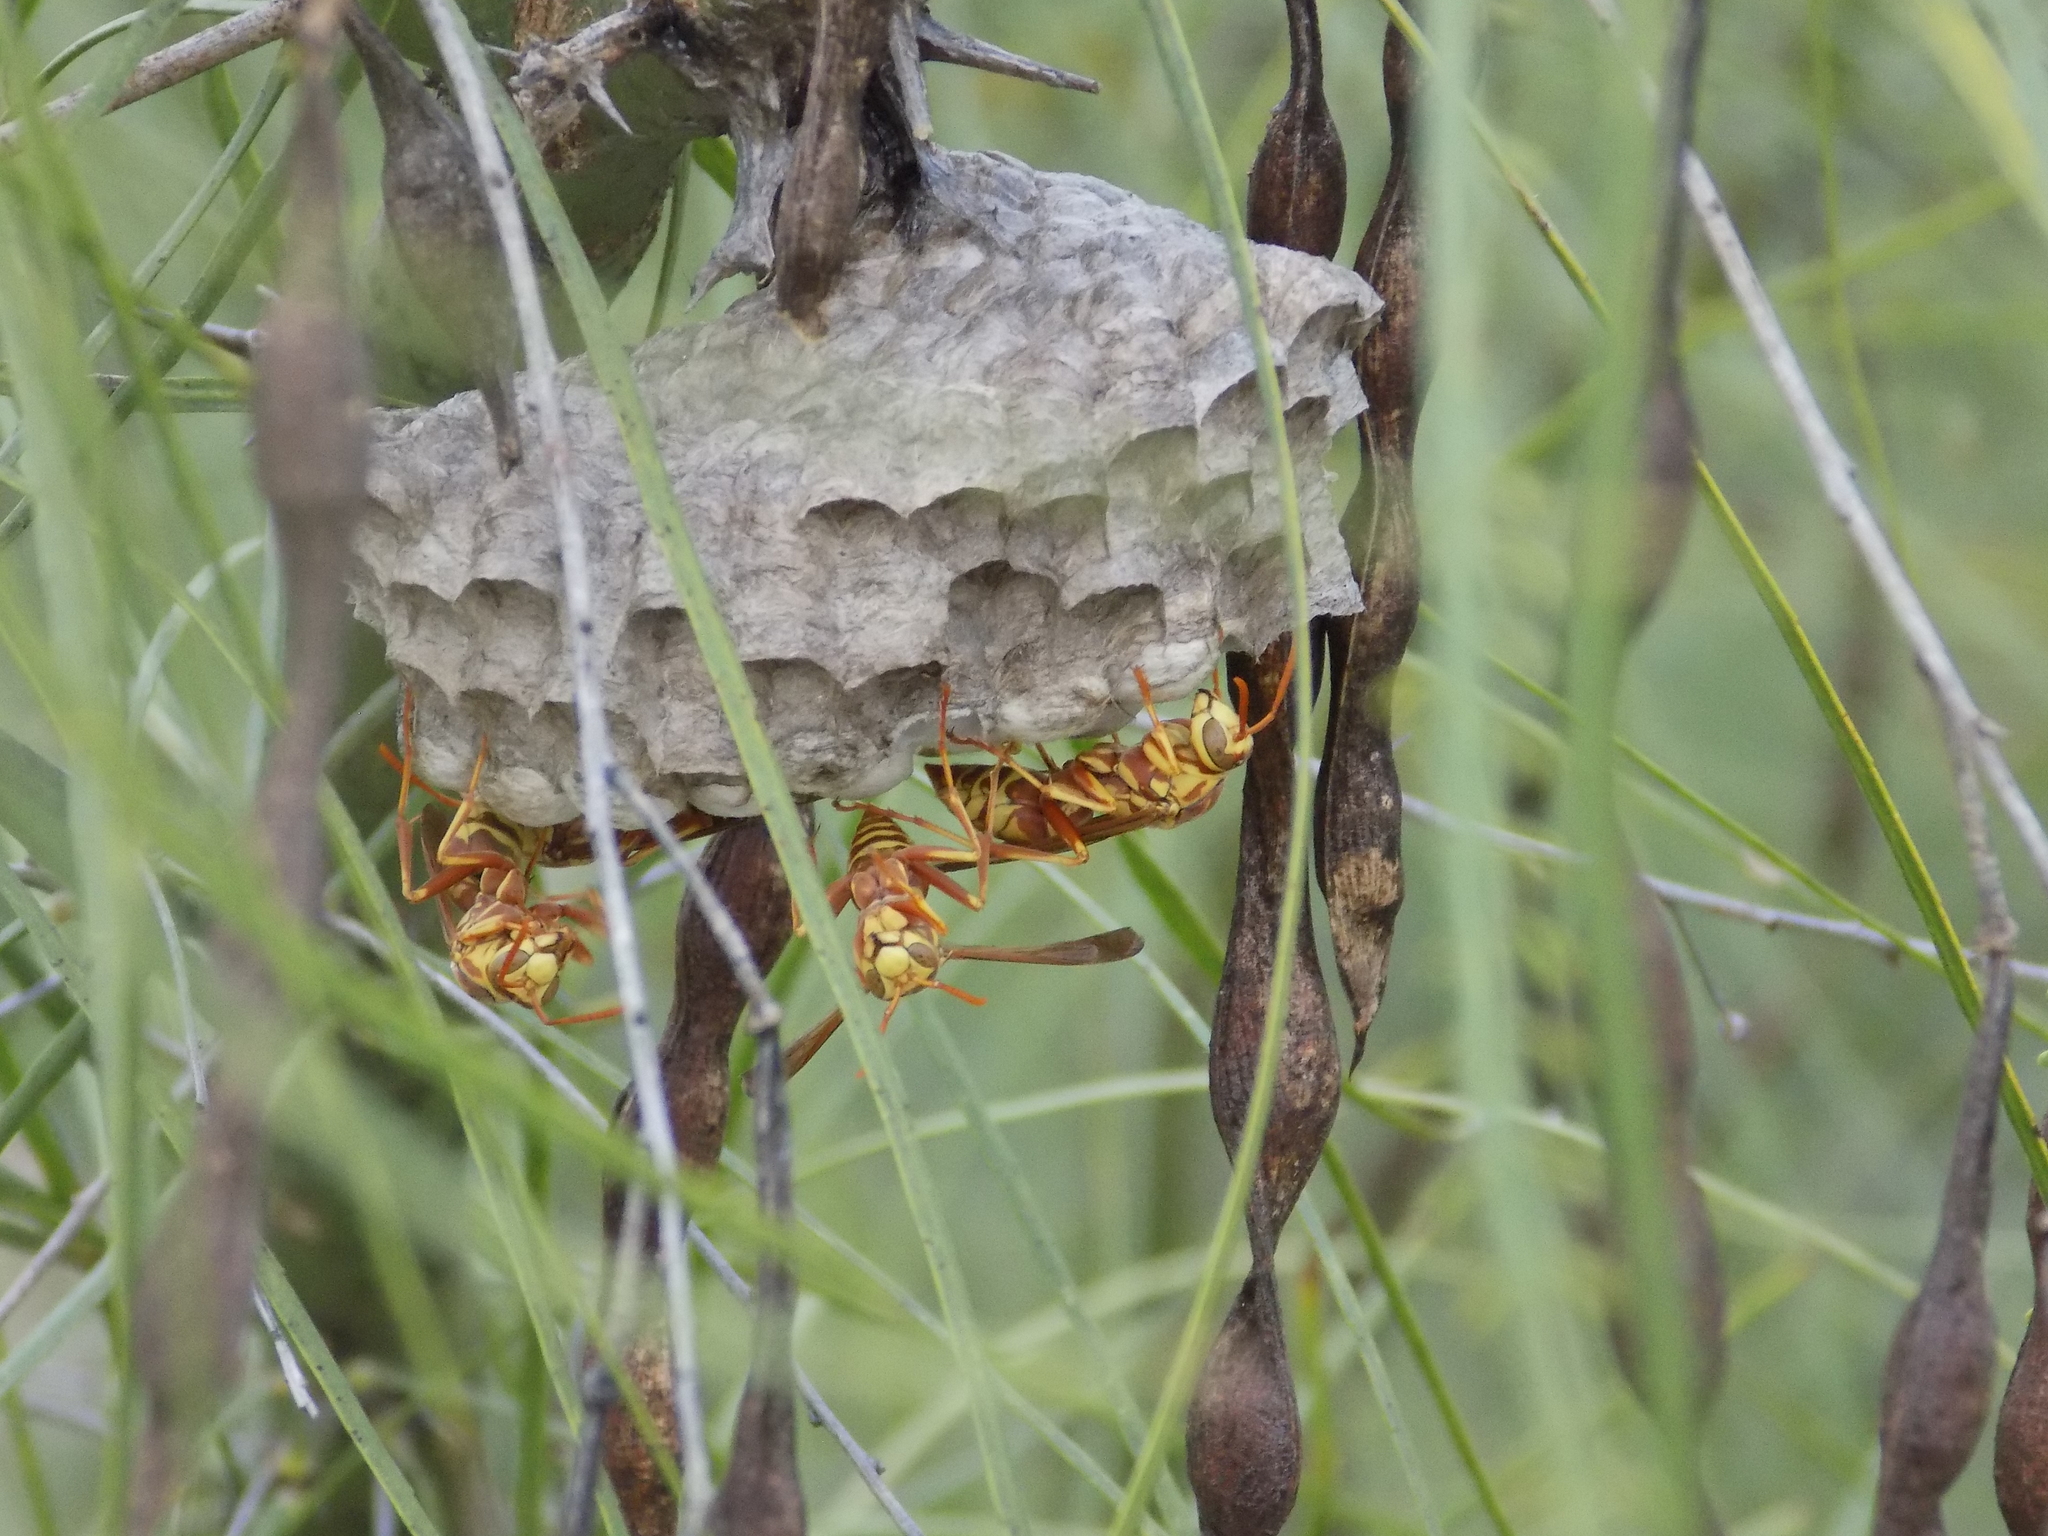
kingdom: Animalia
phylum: Arthropoda
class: Insecta
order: Hymenoptera
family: Eumenidae
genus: Polistes
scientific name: Polistes apachus
